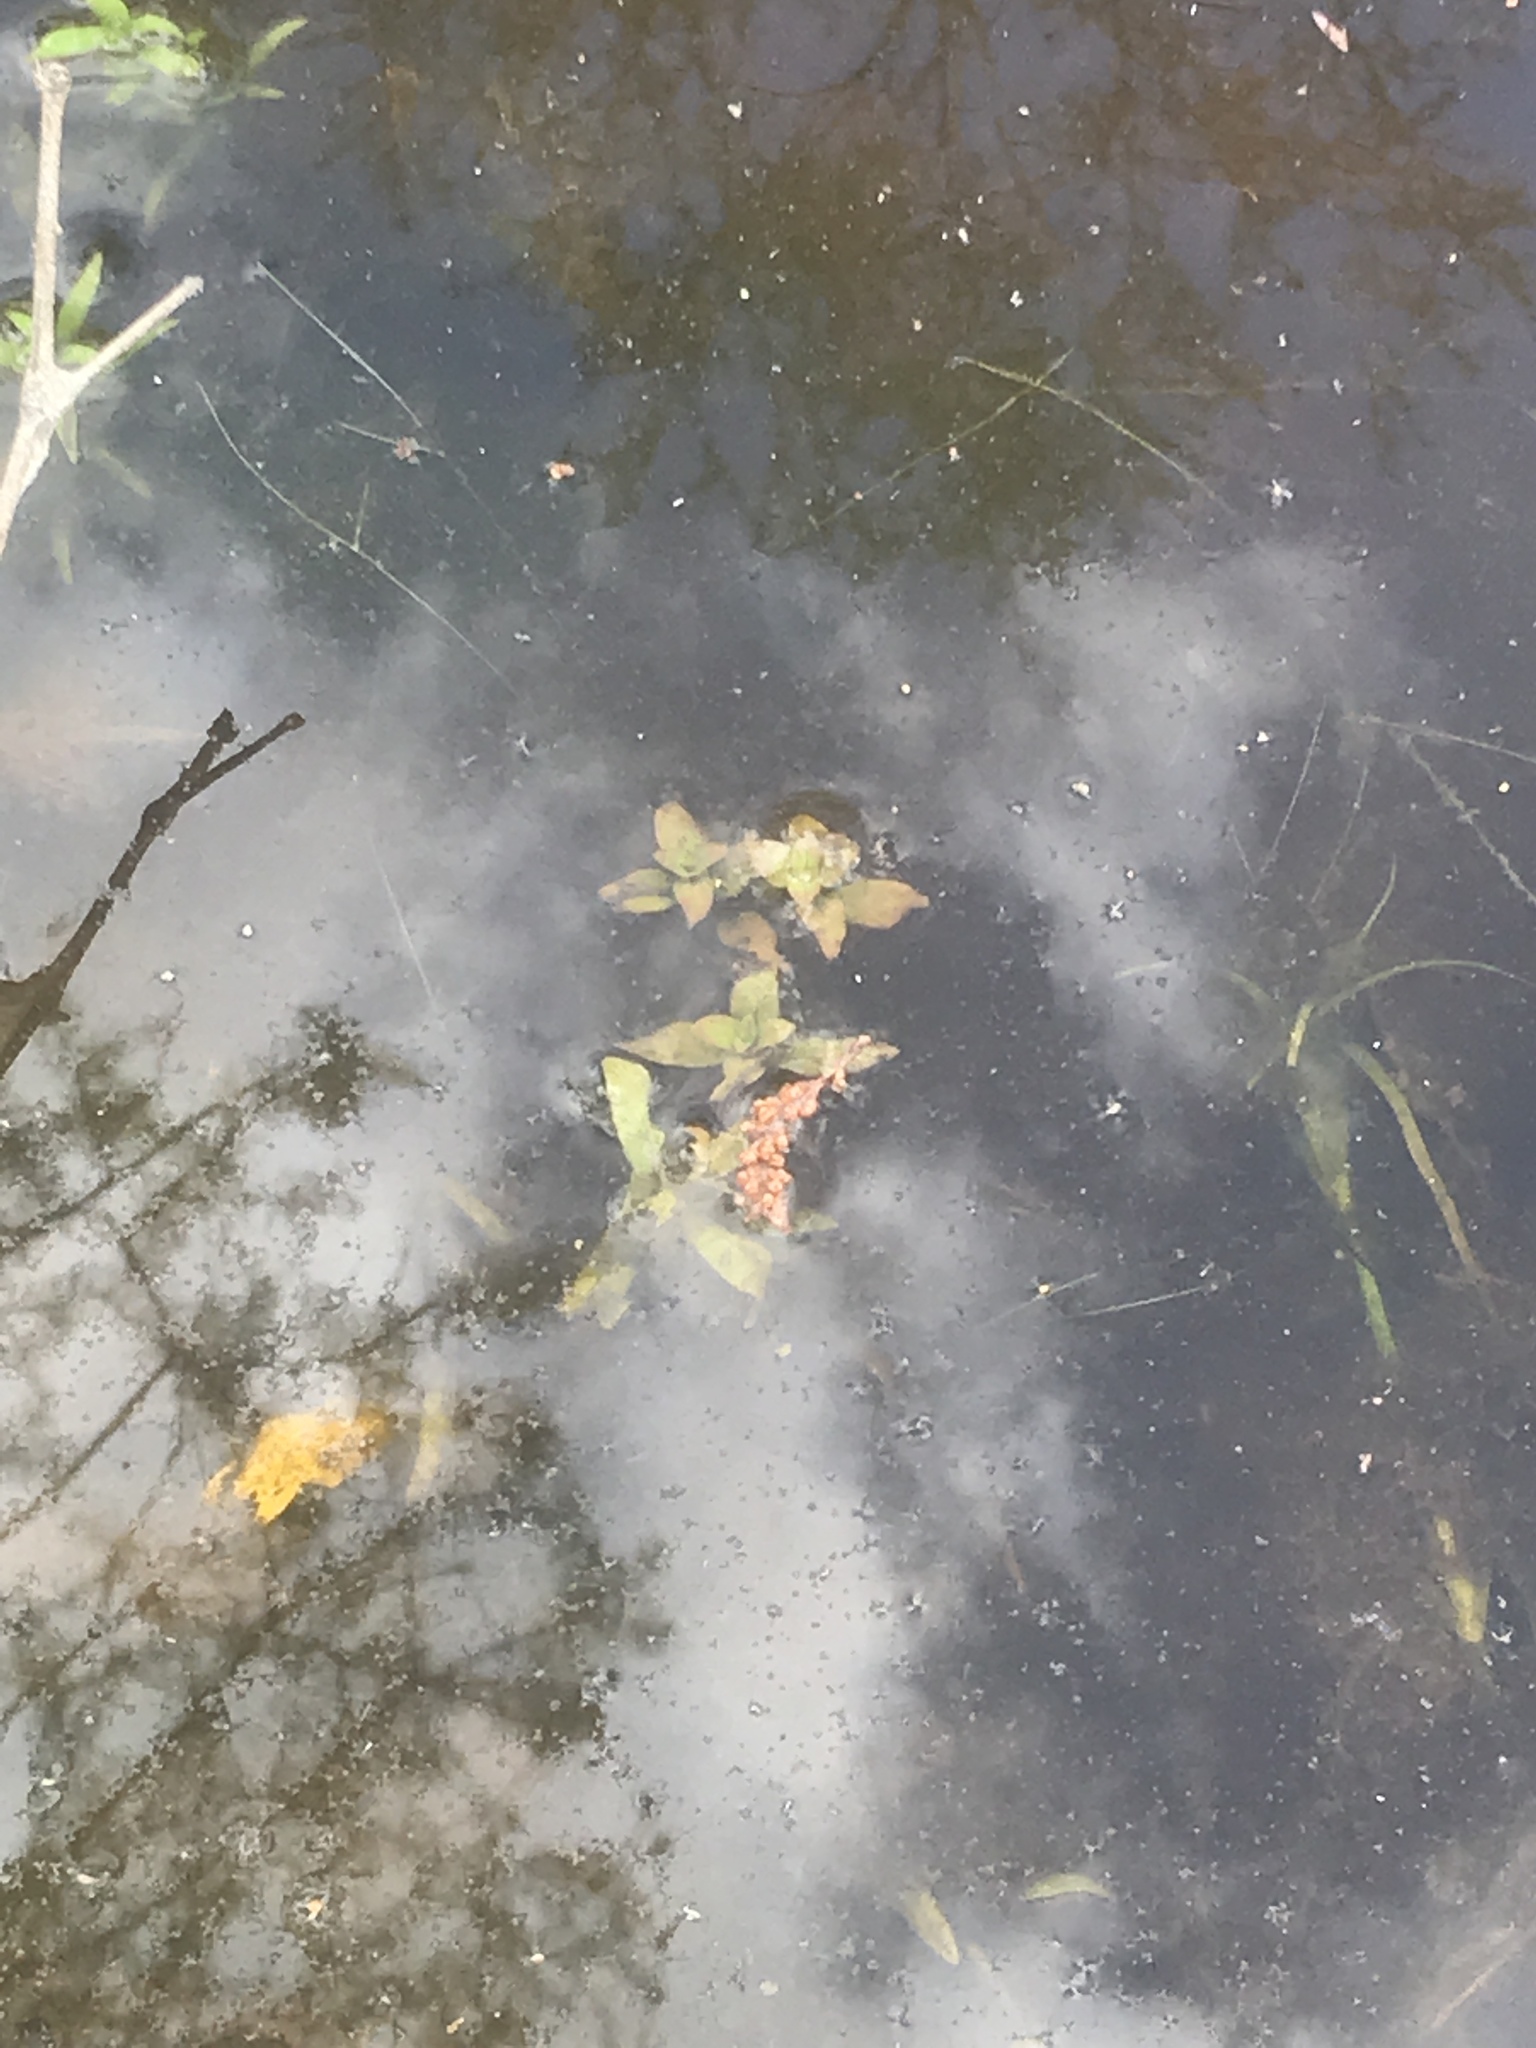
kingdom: Plantae
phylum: Tracheophyta
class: Magnoliopsida
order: Myrtales
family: Onagraceae
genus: Ludwigia
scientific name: Ludwigia palustris
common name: Hampshire-purslane
